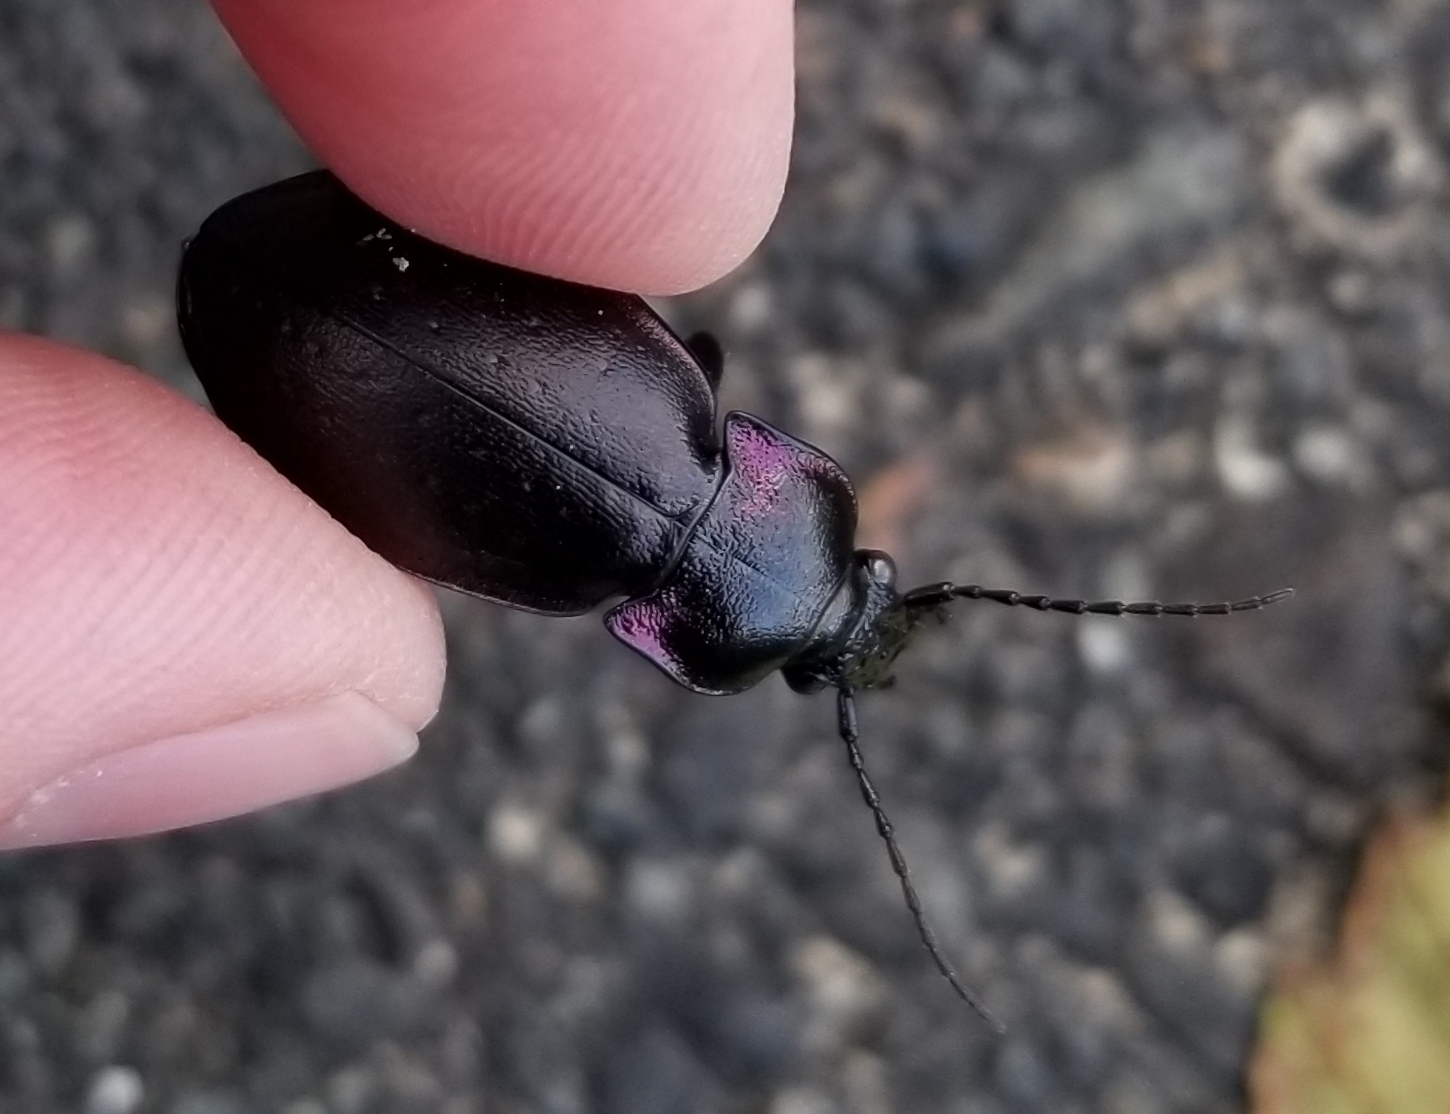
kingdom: Animalia
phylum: Arthropoda
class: Insecta
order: Coleoptera
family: Carabidae
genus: Carabus
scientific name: Carabus nemoralis
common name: European ground beetle
